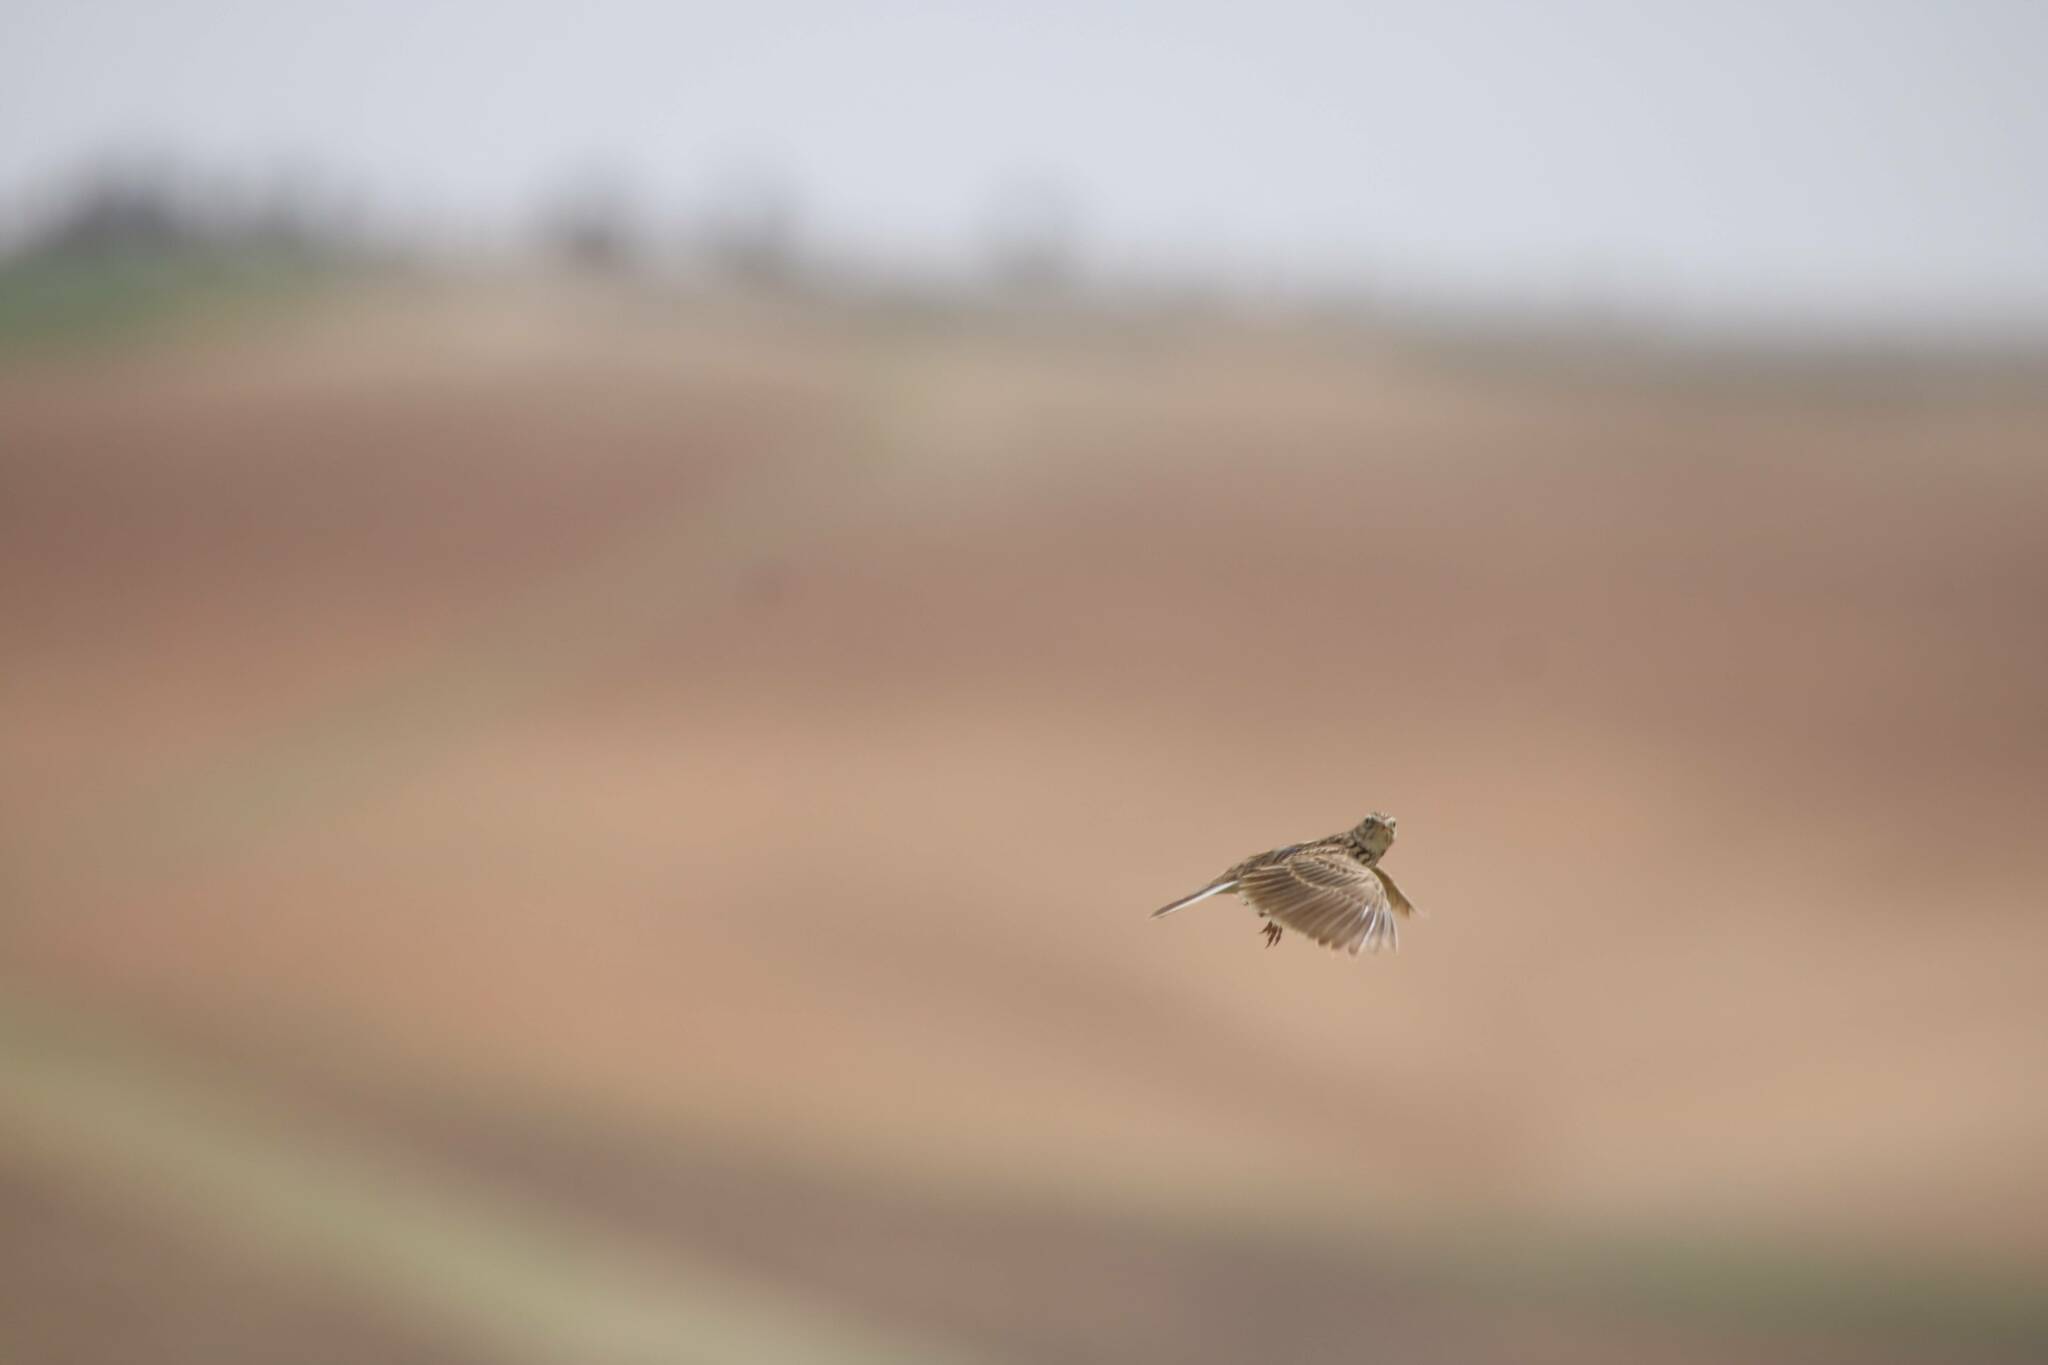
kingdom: Animalia
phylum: Chordata
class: Aves
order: Passeriformes
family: Alaudidae
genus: Alauda
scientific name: Alauda arvensis
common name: Eurasian skylark
